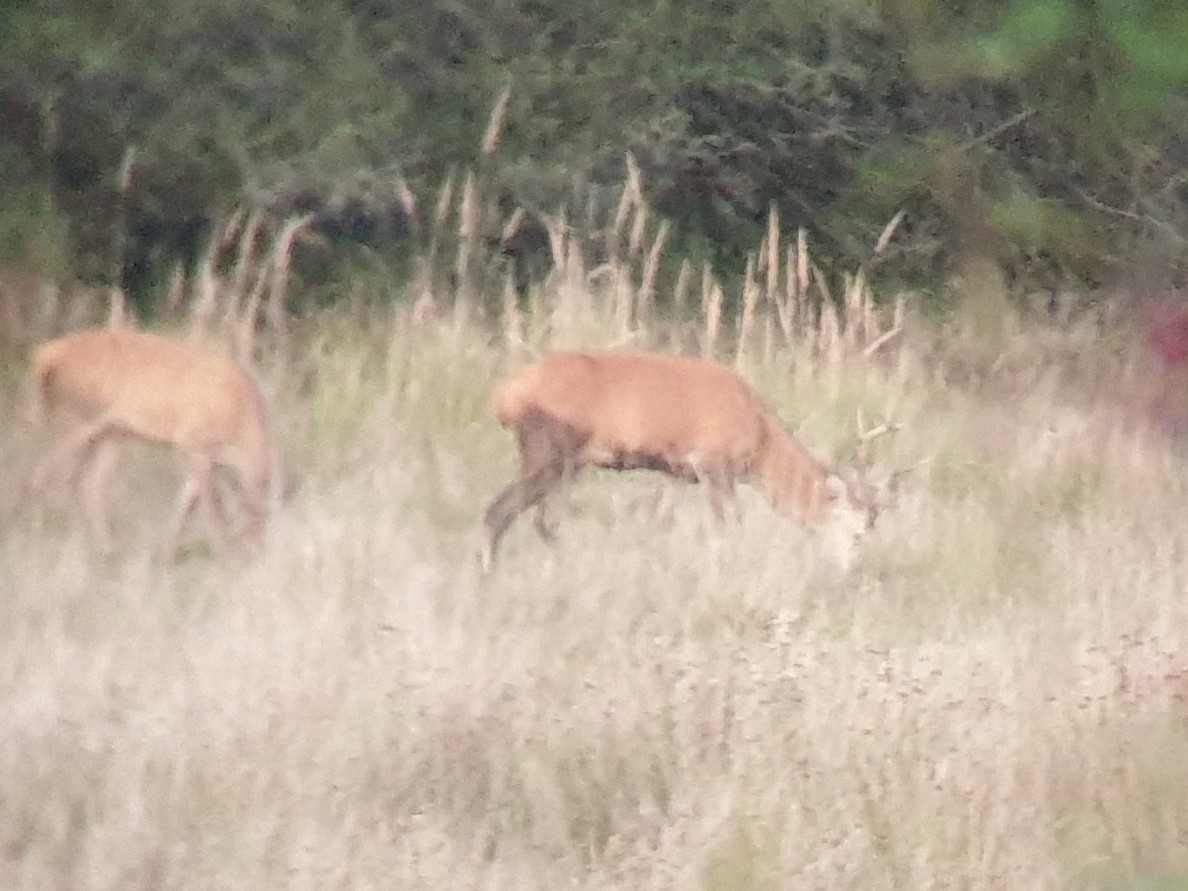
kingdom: Animalia
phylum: Chordata
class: Mammalia
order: Artiodactyla
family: Cervidae
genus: Cervus
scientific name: Cervus elaphus
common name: Red deer
